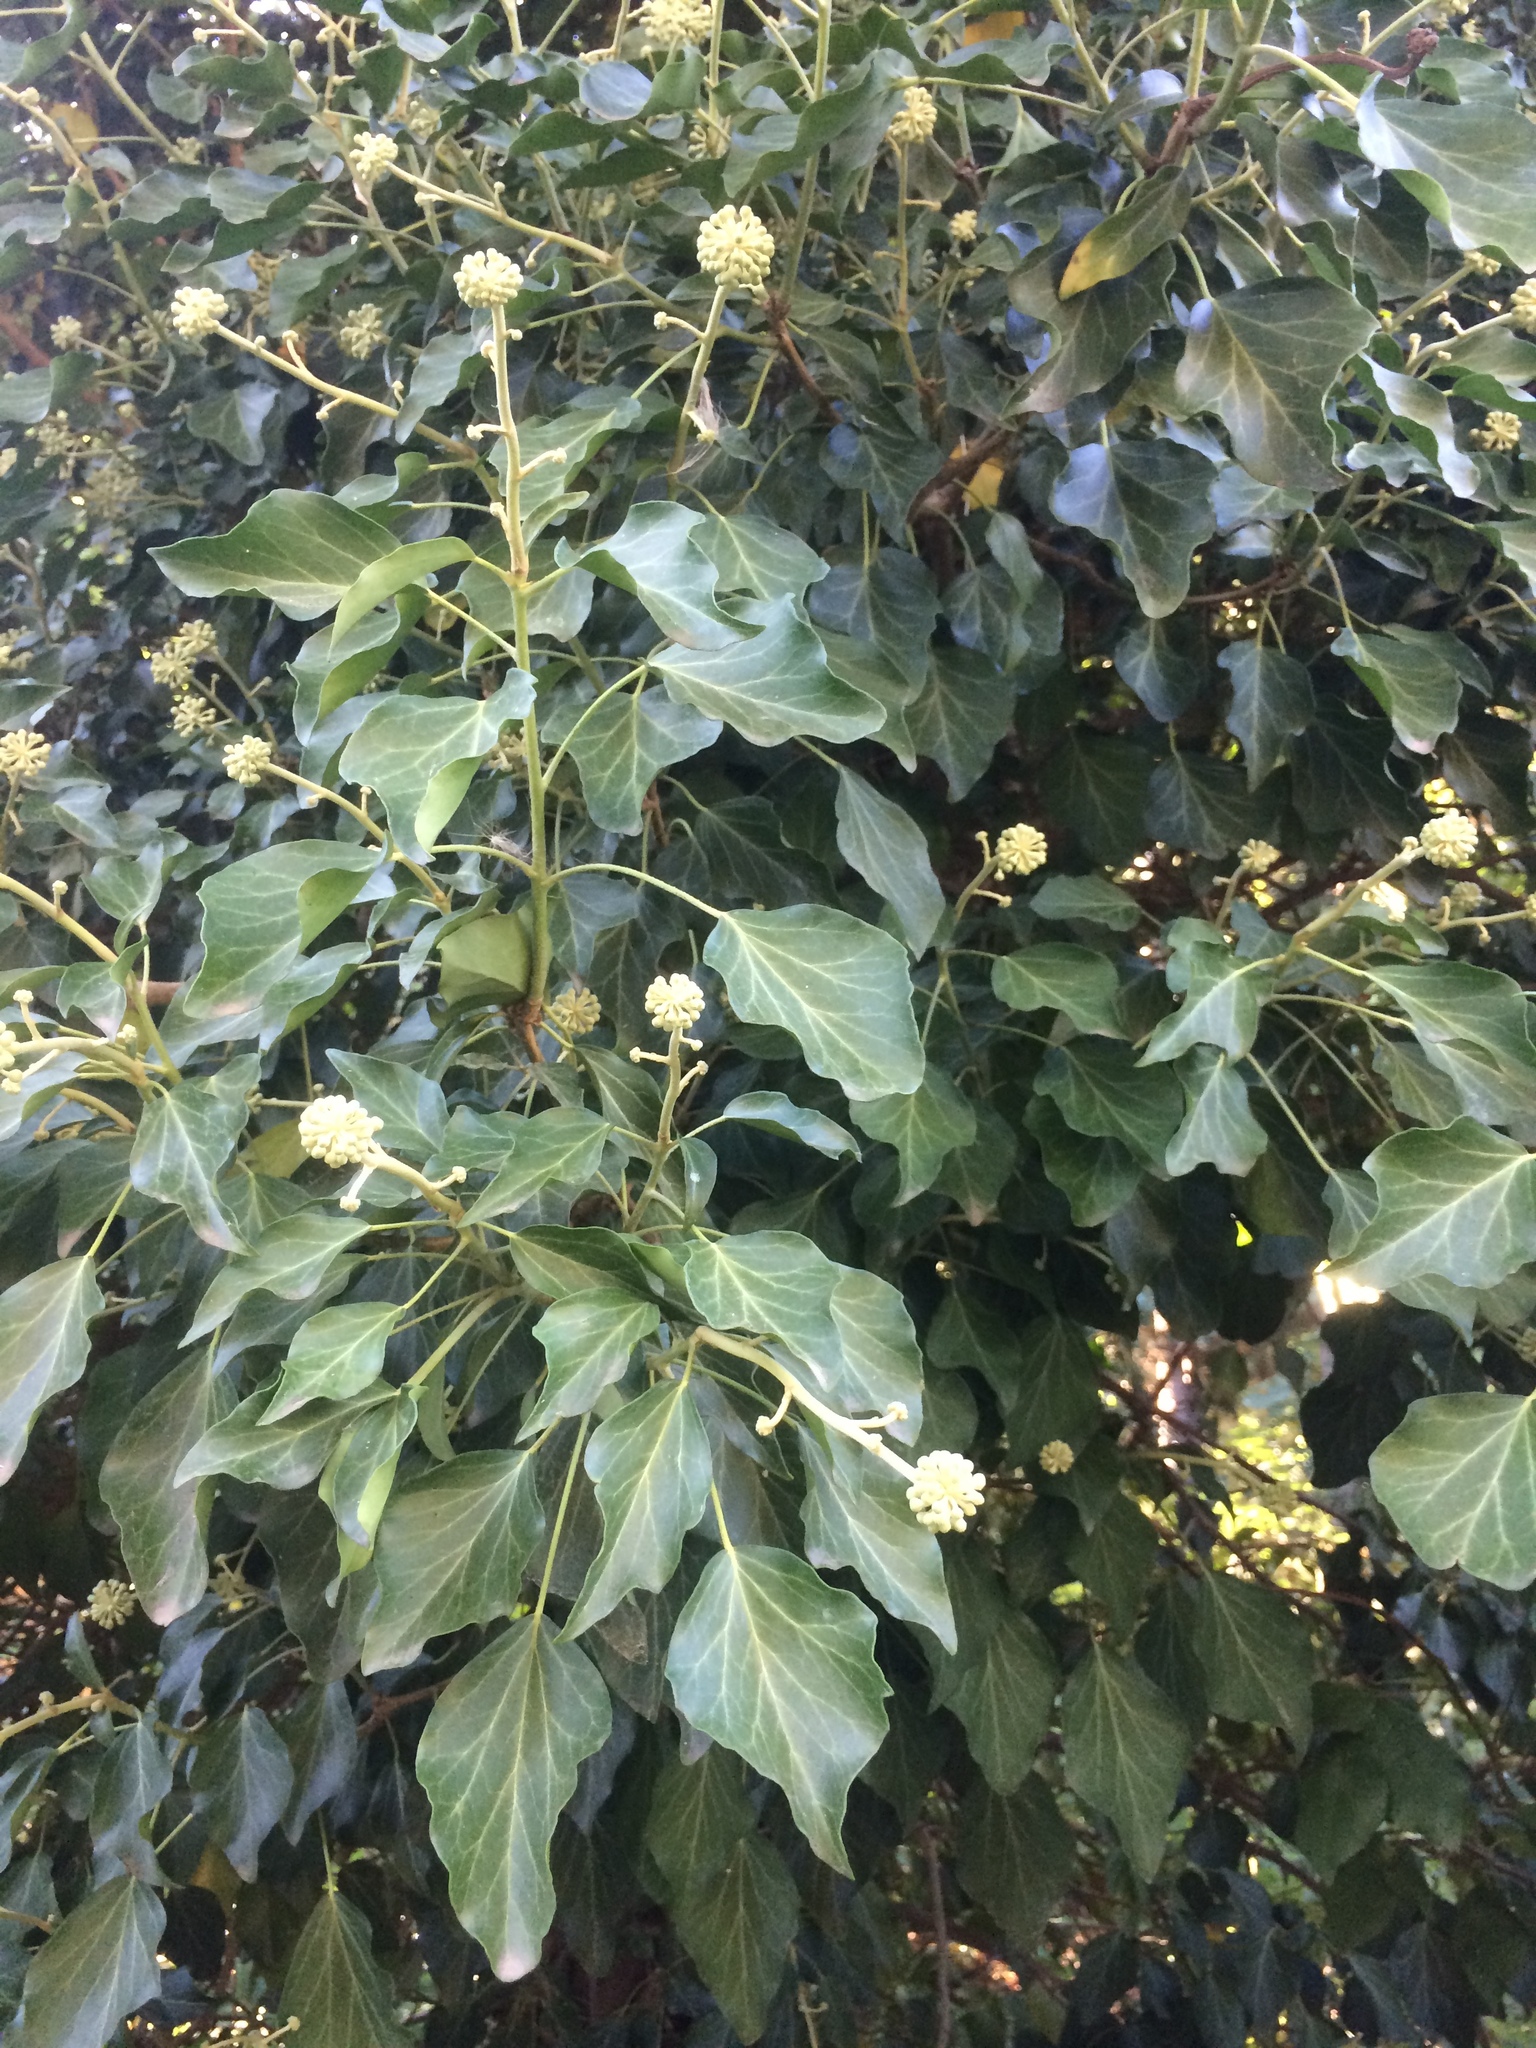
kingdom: Plantae
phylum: Tracheophyta
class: Magnoliopsida
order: Apiales
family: Araliaceae
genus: Hedera
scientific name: Hedera helix
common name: Ivy
